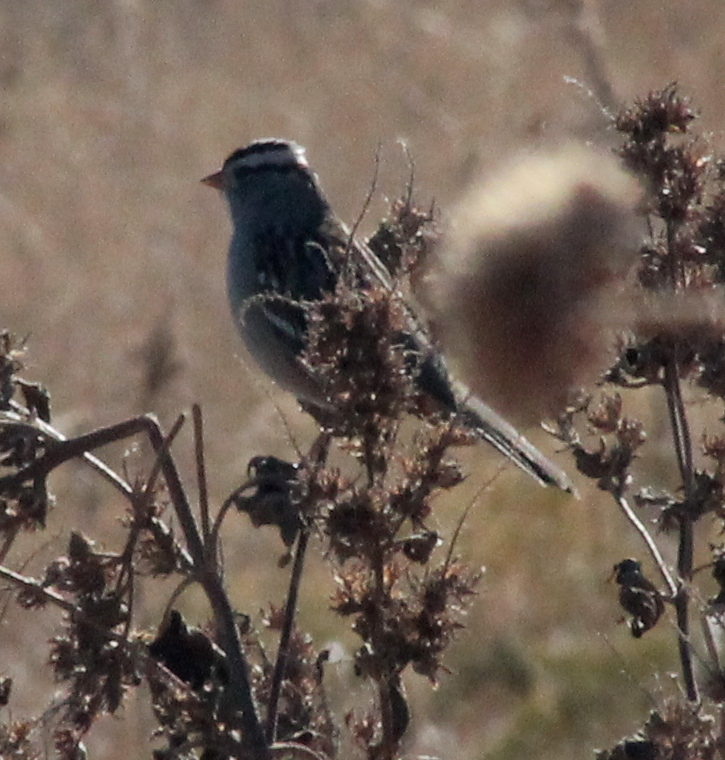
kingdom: Animalia
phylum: Chordata
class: Aves
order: Passeriformes
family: Passerellidae
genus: Zonotrichia
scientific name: Zonotrichia leucophrys
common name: White-crowned sparrow
